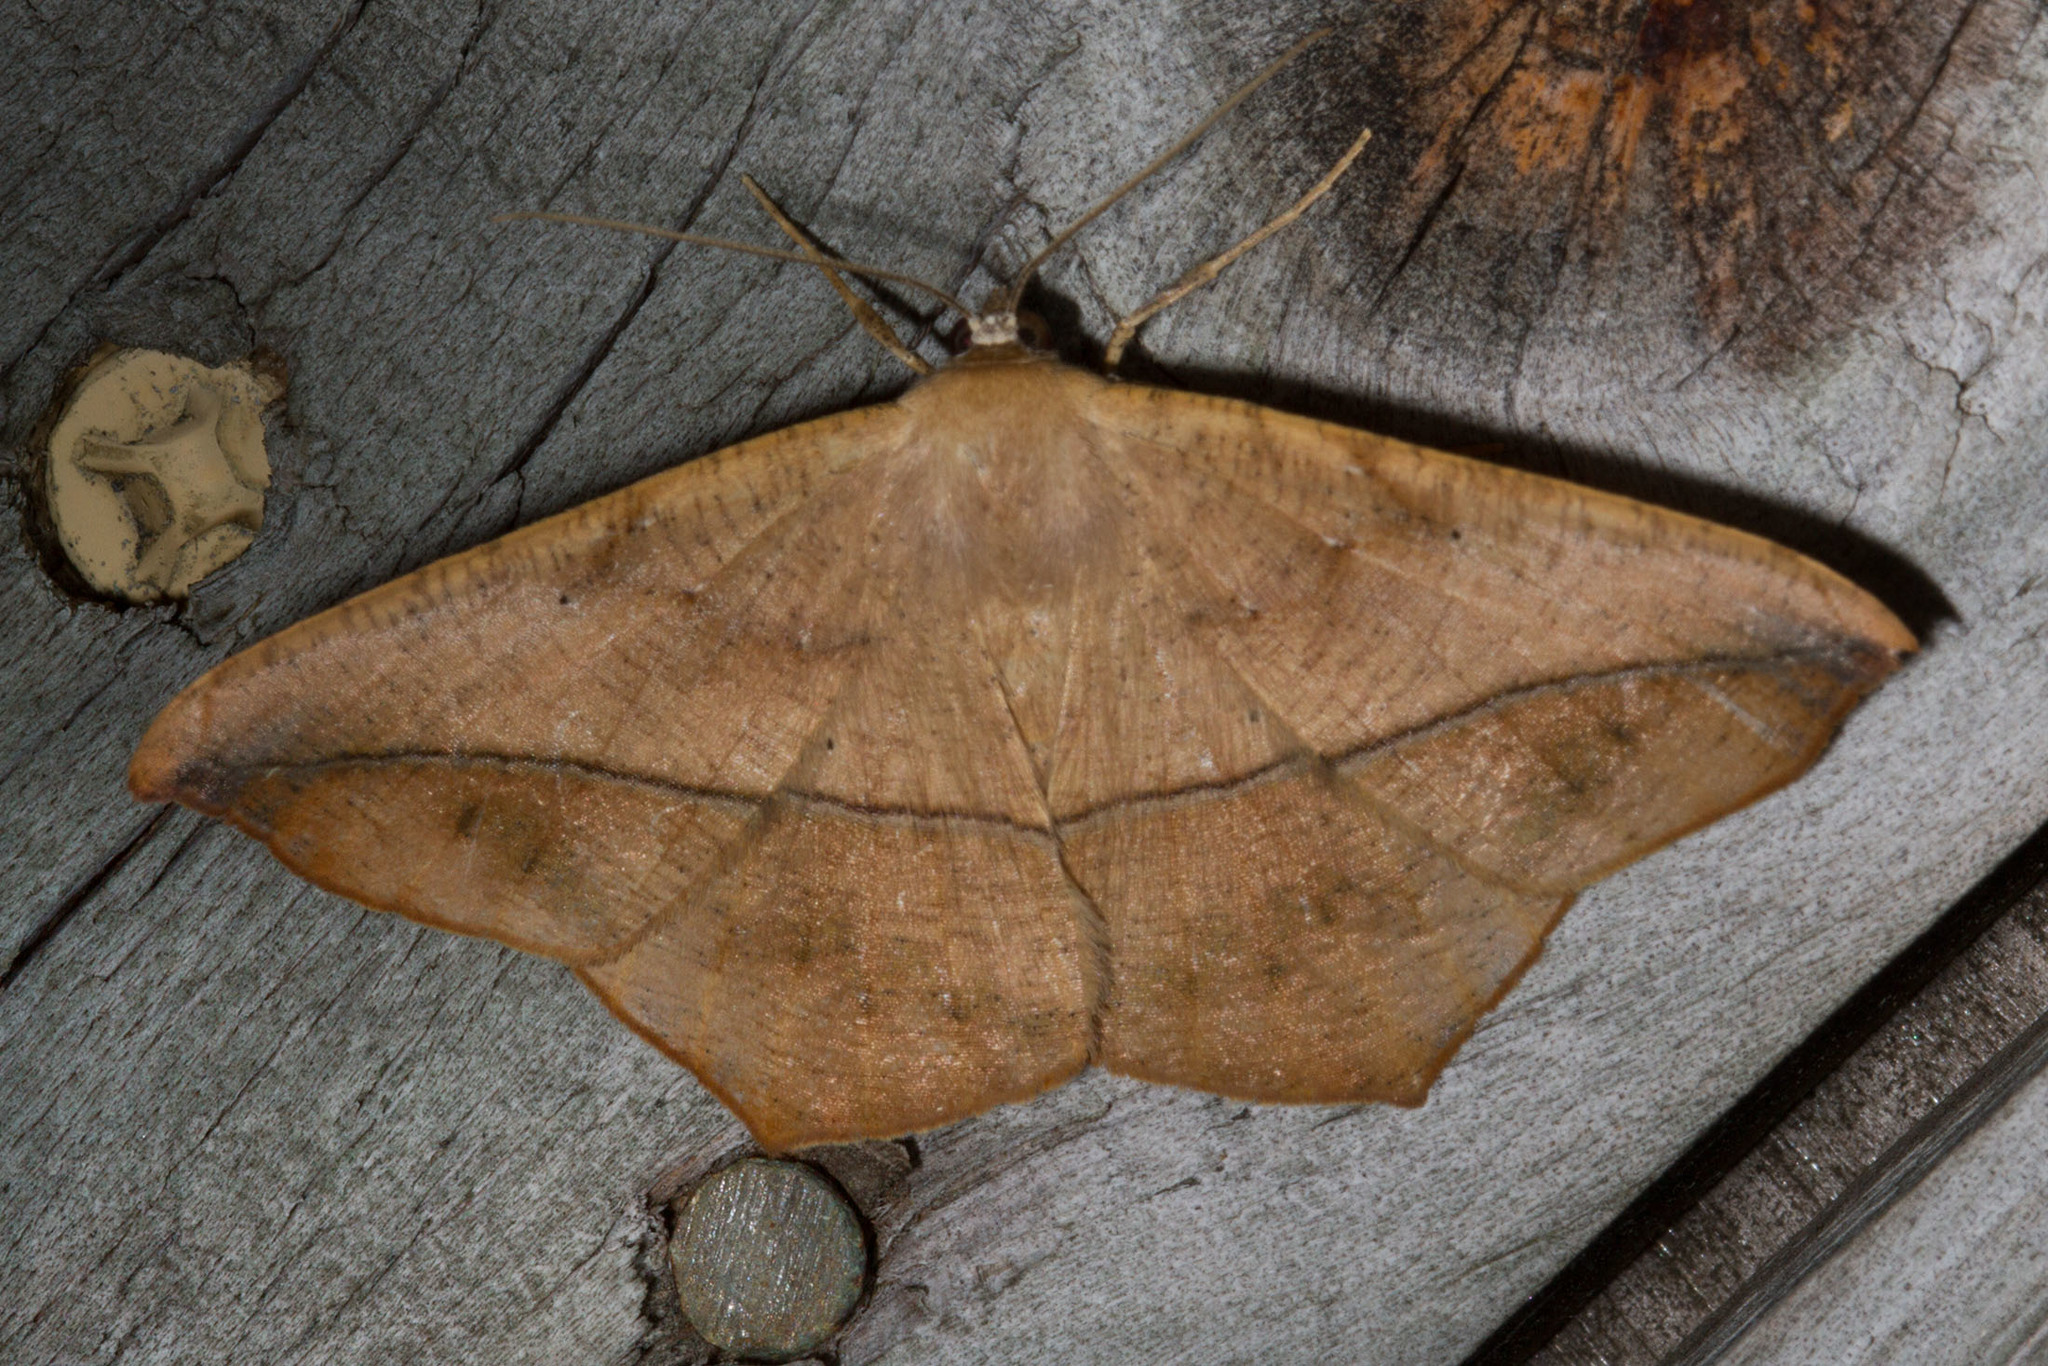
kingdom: Animalia
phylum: Arthropoda
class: Insecta
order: Lepidoptera
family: Geometridae
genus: Prochoerodes
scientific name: Prochoerodes lineola
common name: Large maple spanworm
